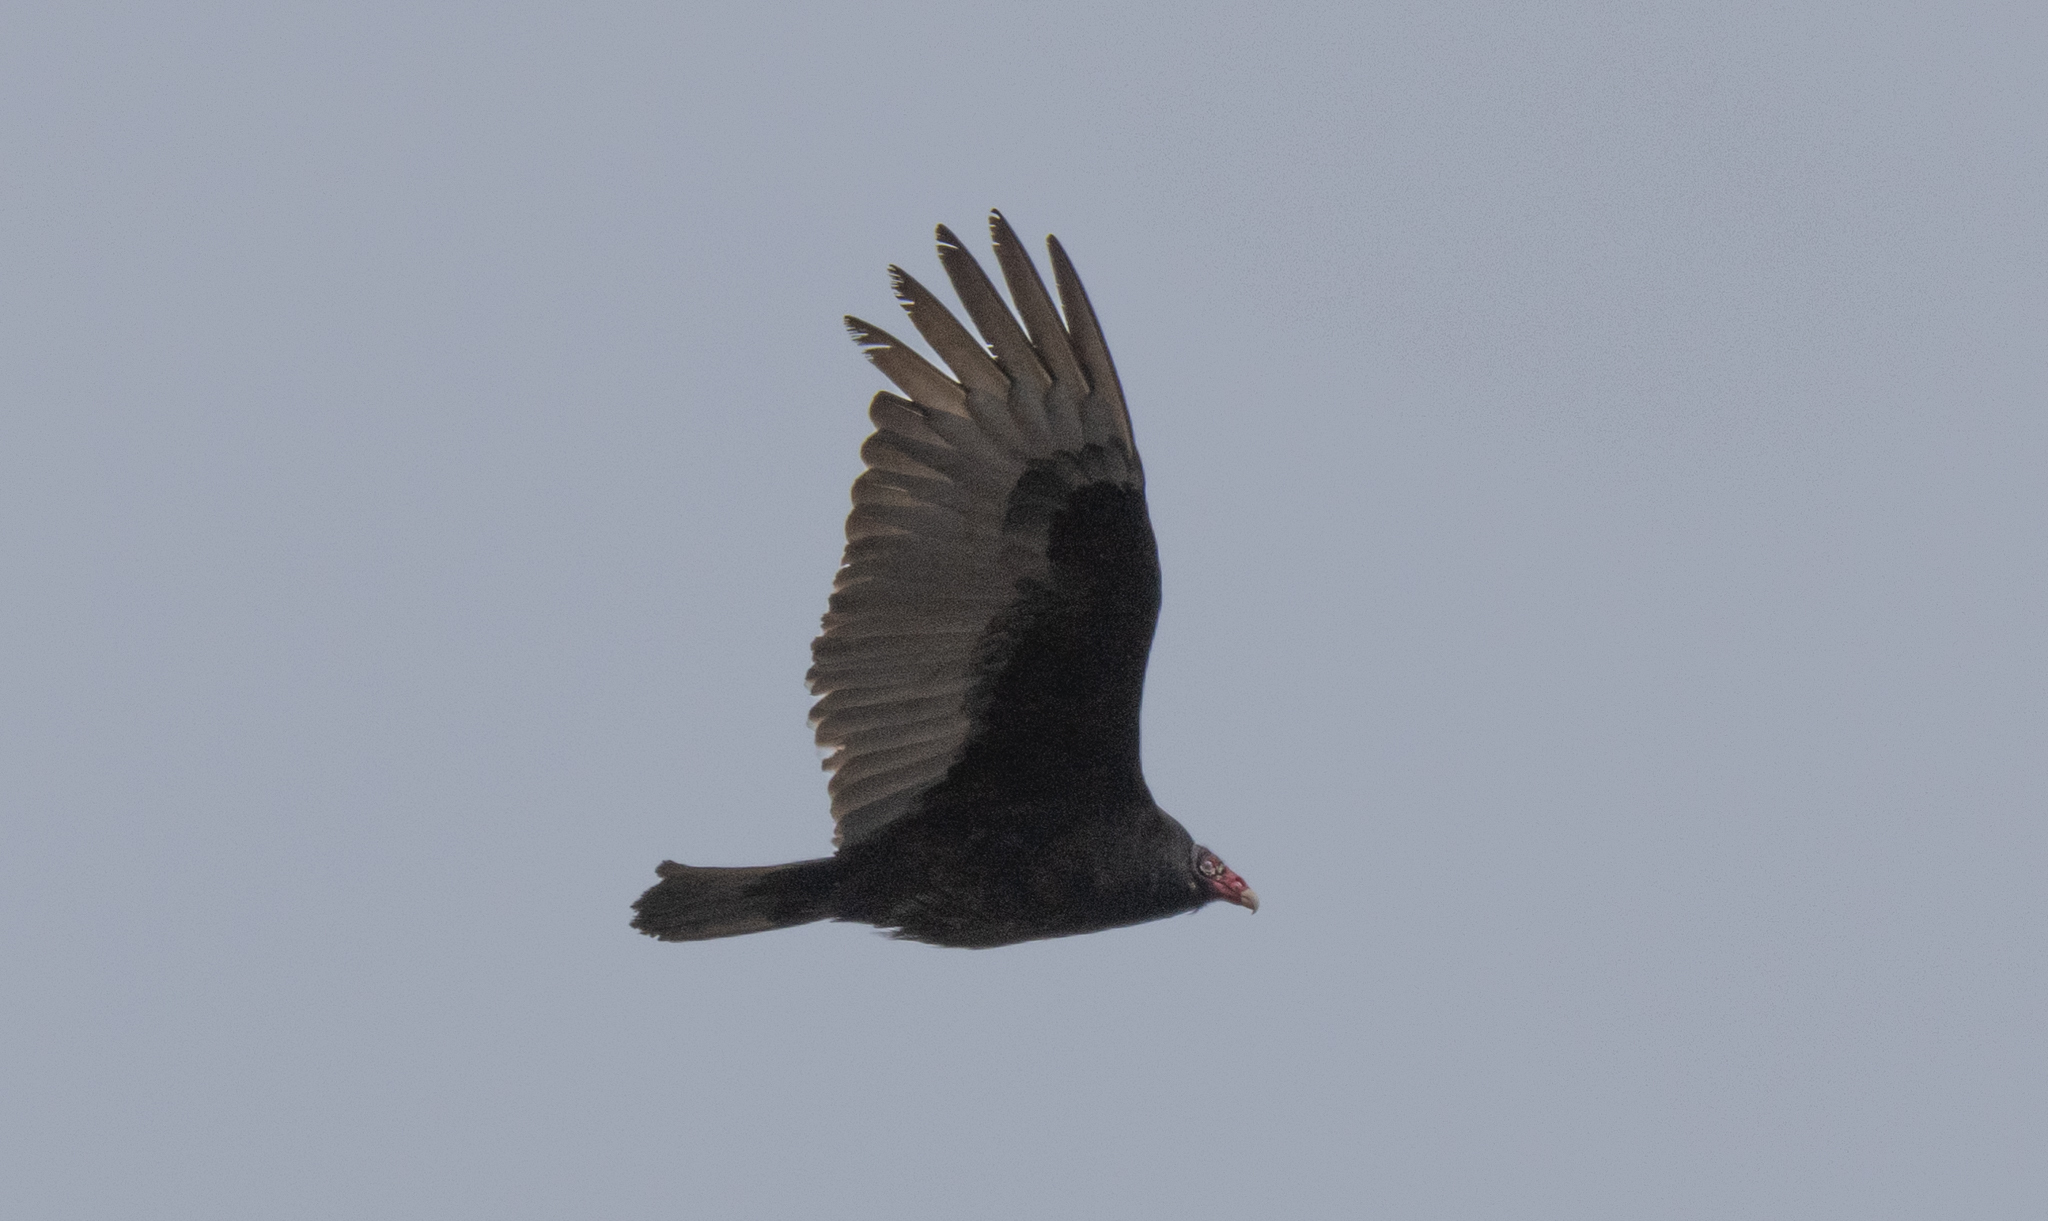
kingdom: Animalia
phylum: Chordata
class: Aves
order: Accipitriformes
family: Cathartidae
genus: Cathartes
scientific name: Cathartes aura
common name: Turkey vulture
